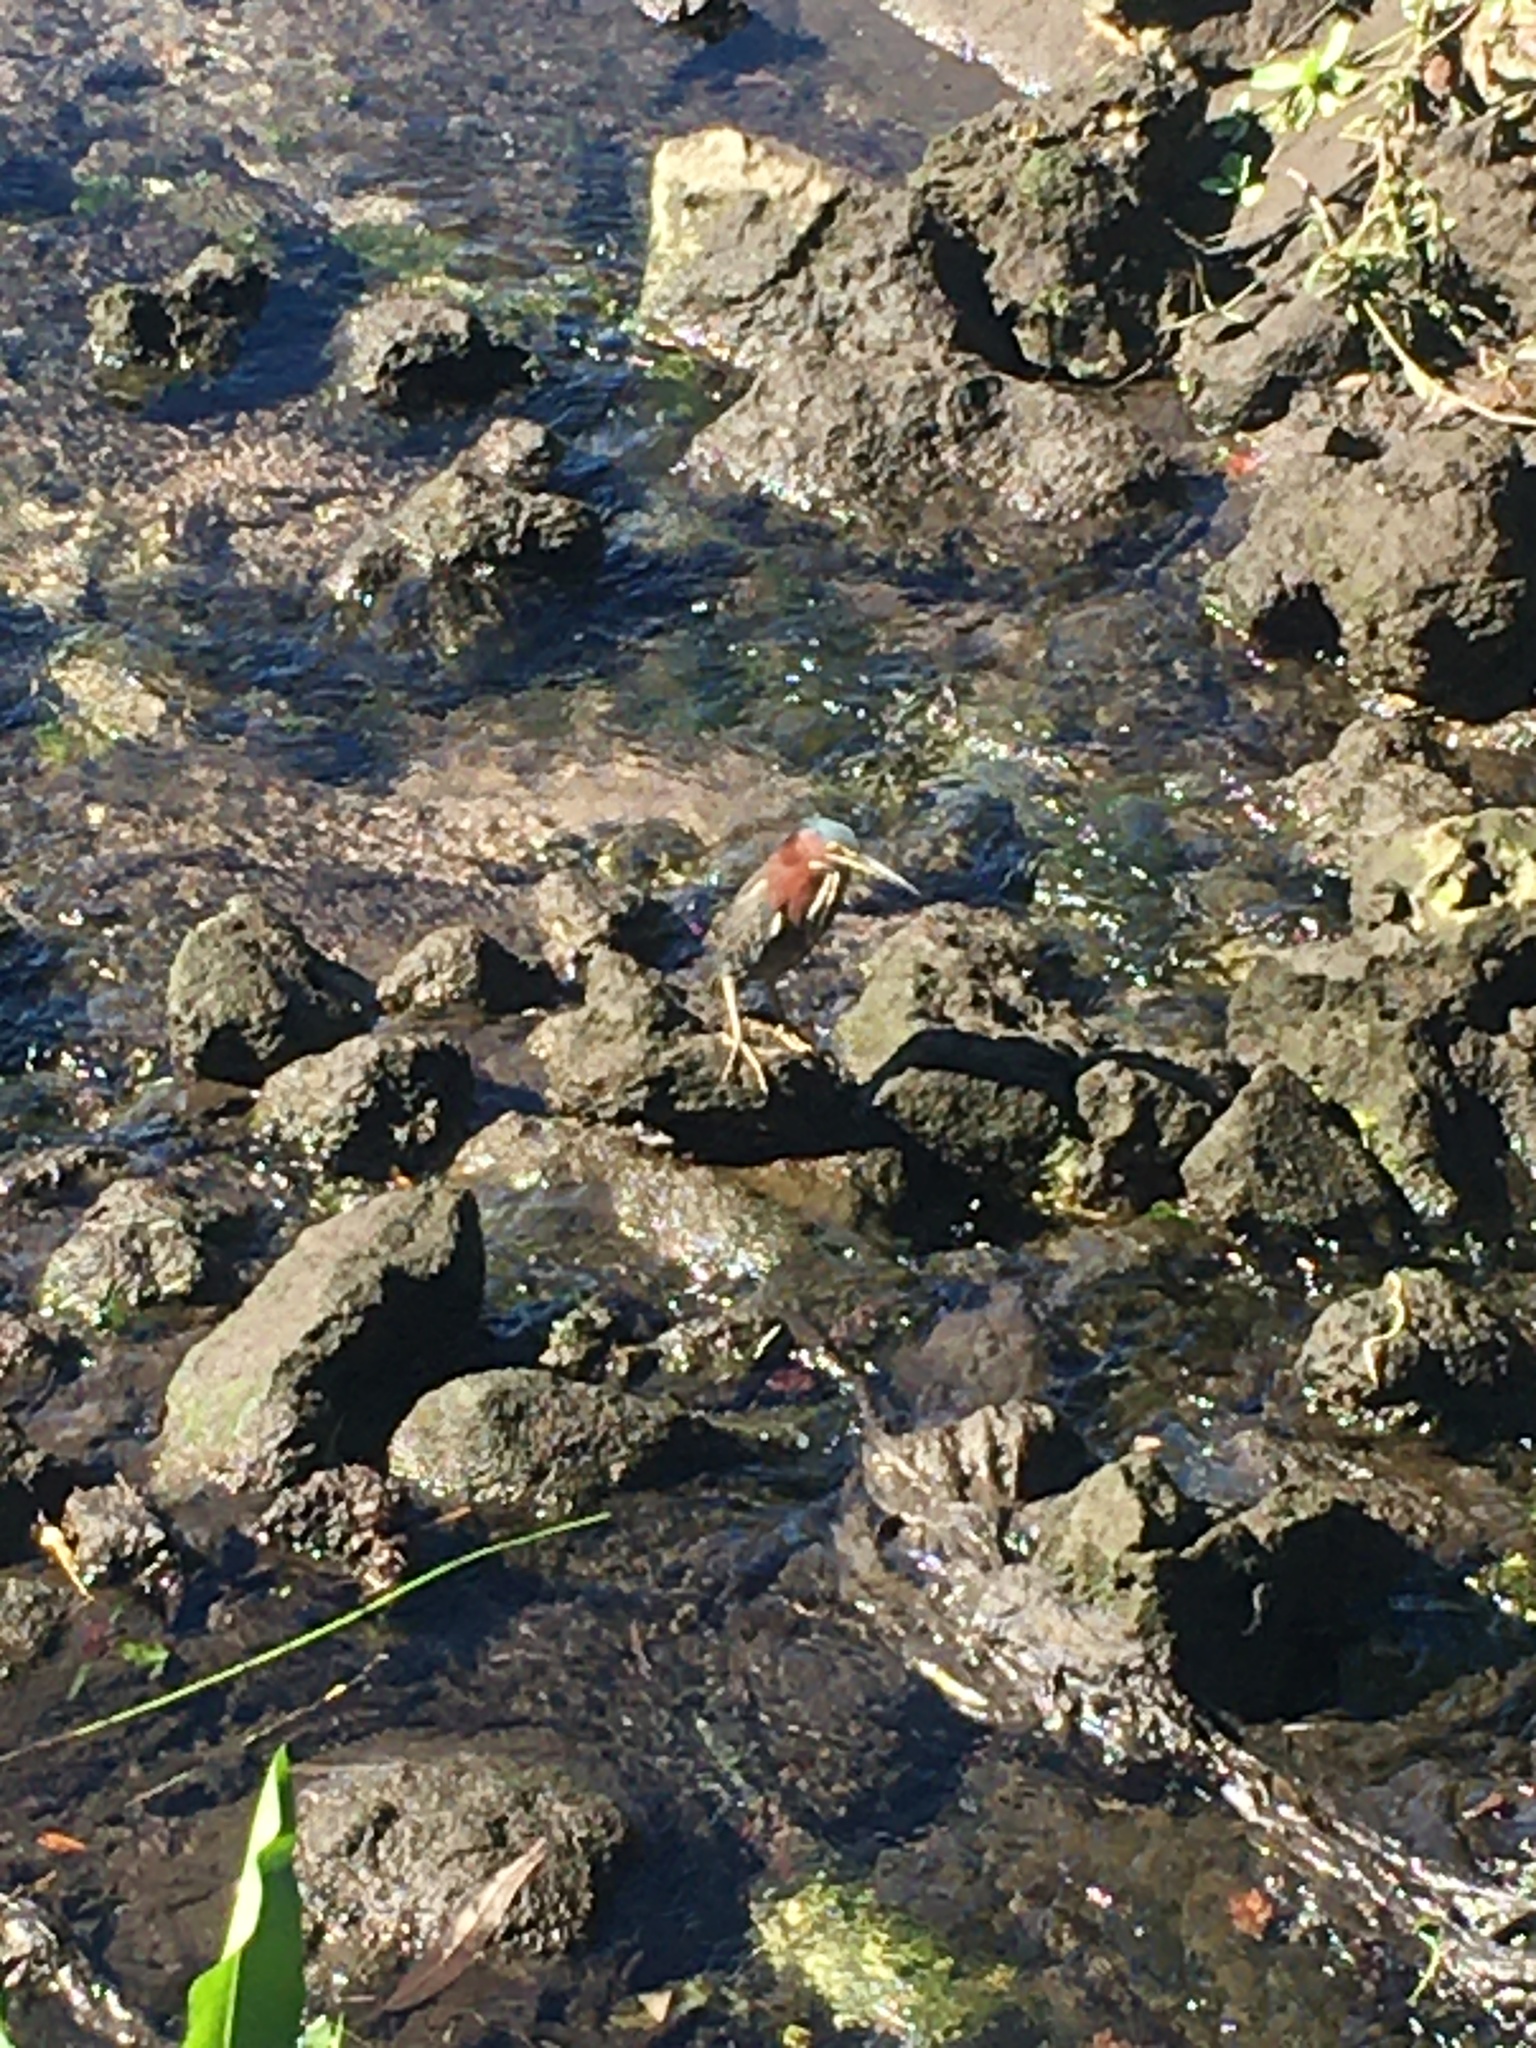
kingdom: Animalia
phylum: Chordata
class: Aves
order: Pelecaniformes
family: Ardeidae
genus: Butorides
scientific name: Butorides virescens
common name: Green heron
